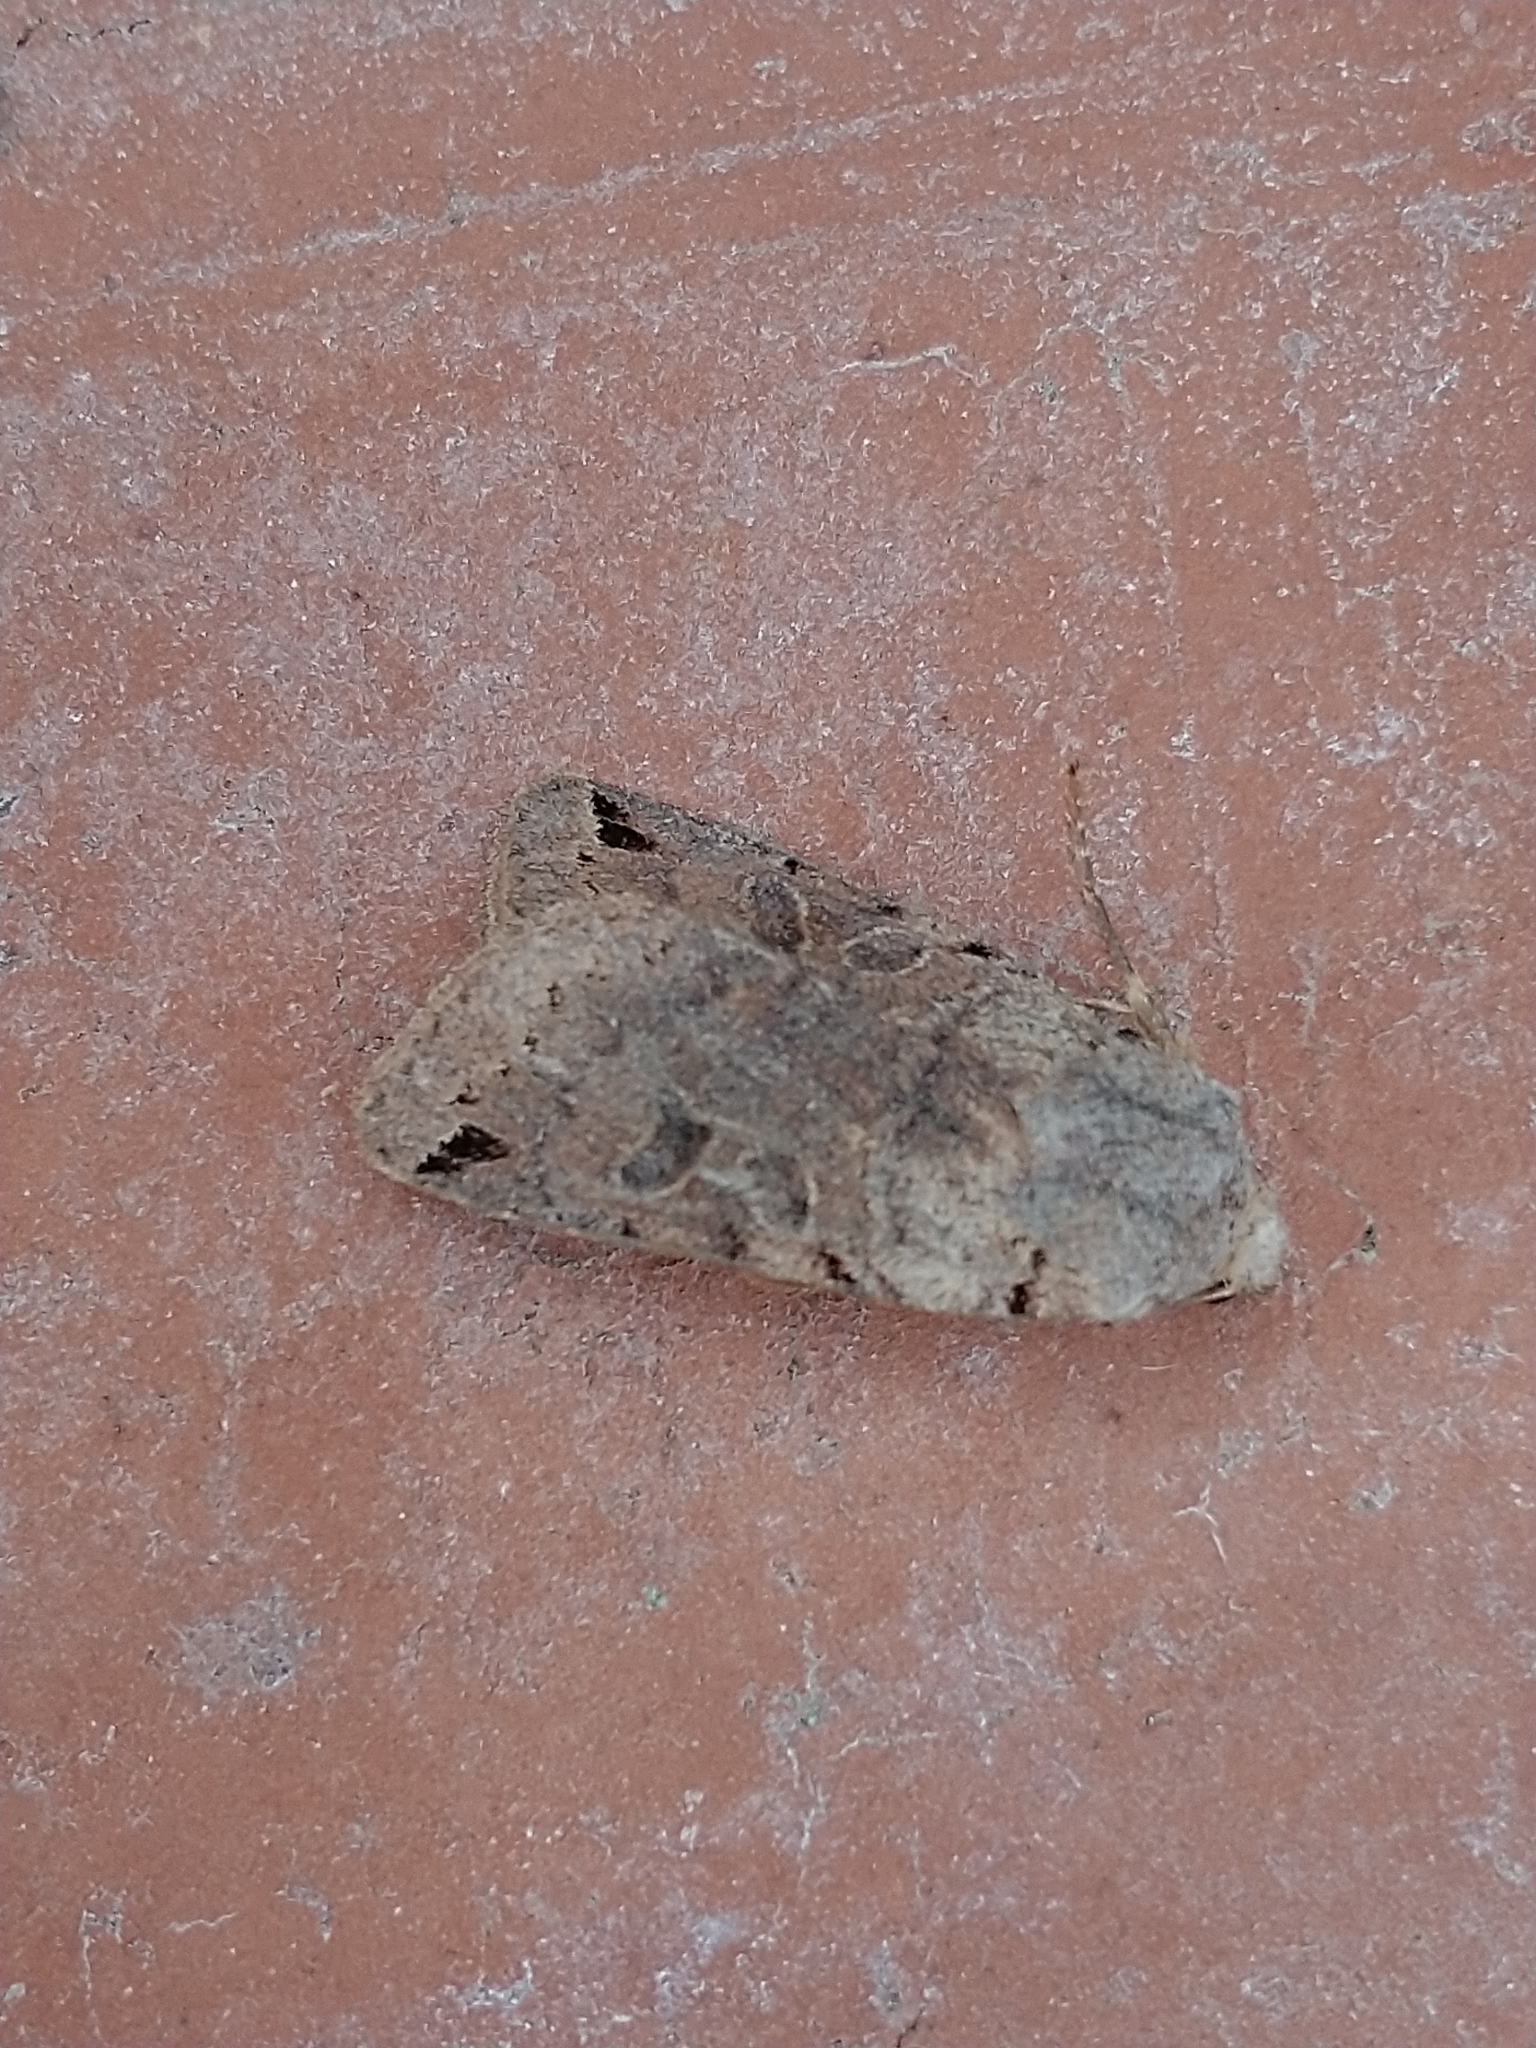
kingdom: Animalia
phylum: Arthropoda
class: Insecta
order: Lepidoptera
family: Noctuidae
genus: Agrochola
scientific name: Agrochola litura
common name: Brown-spot pinion
